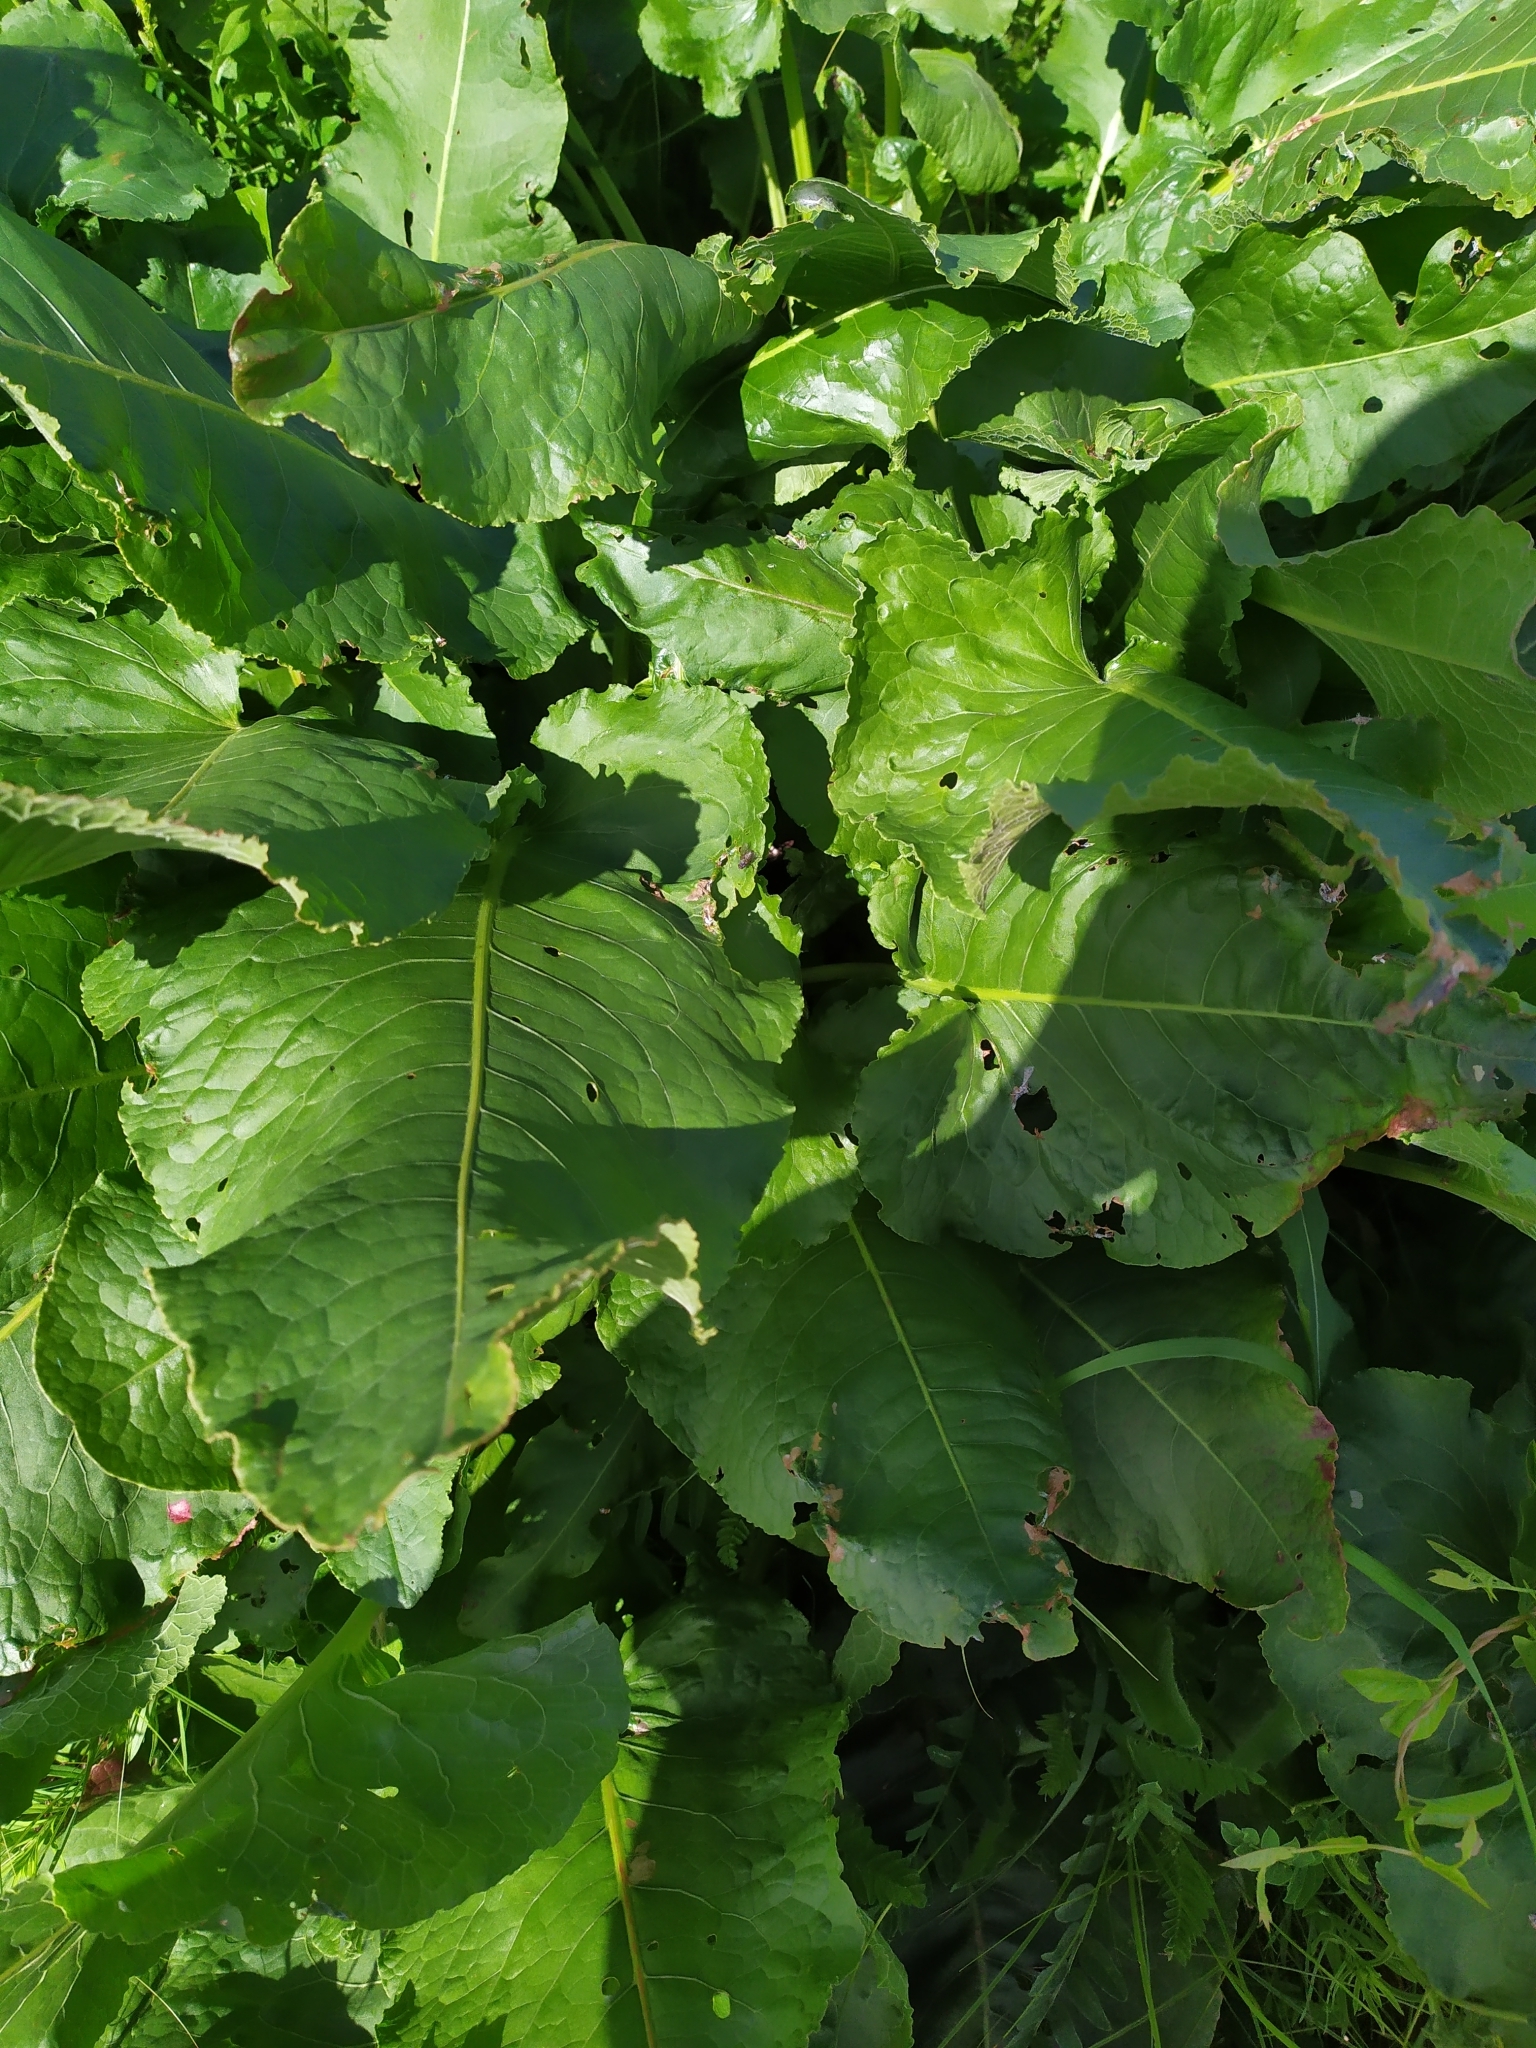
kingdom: Plantae
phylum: Tracheophyta
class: Magnoliopsida
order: Caryophyllales
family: Polygonaceae
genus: Rumex
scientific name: Rumex confertus
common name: Russian dock
